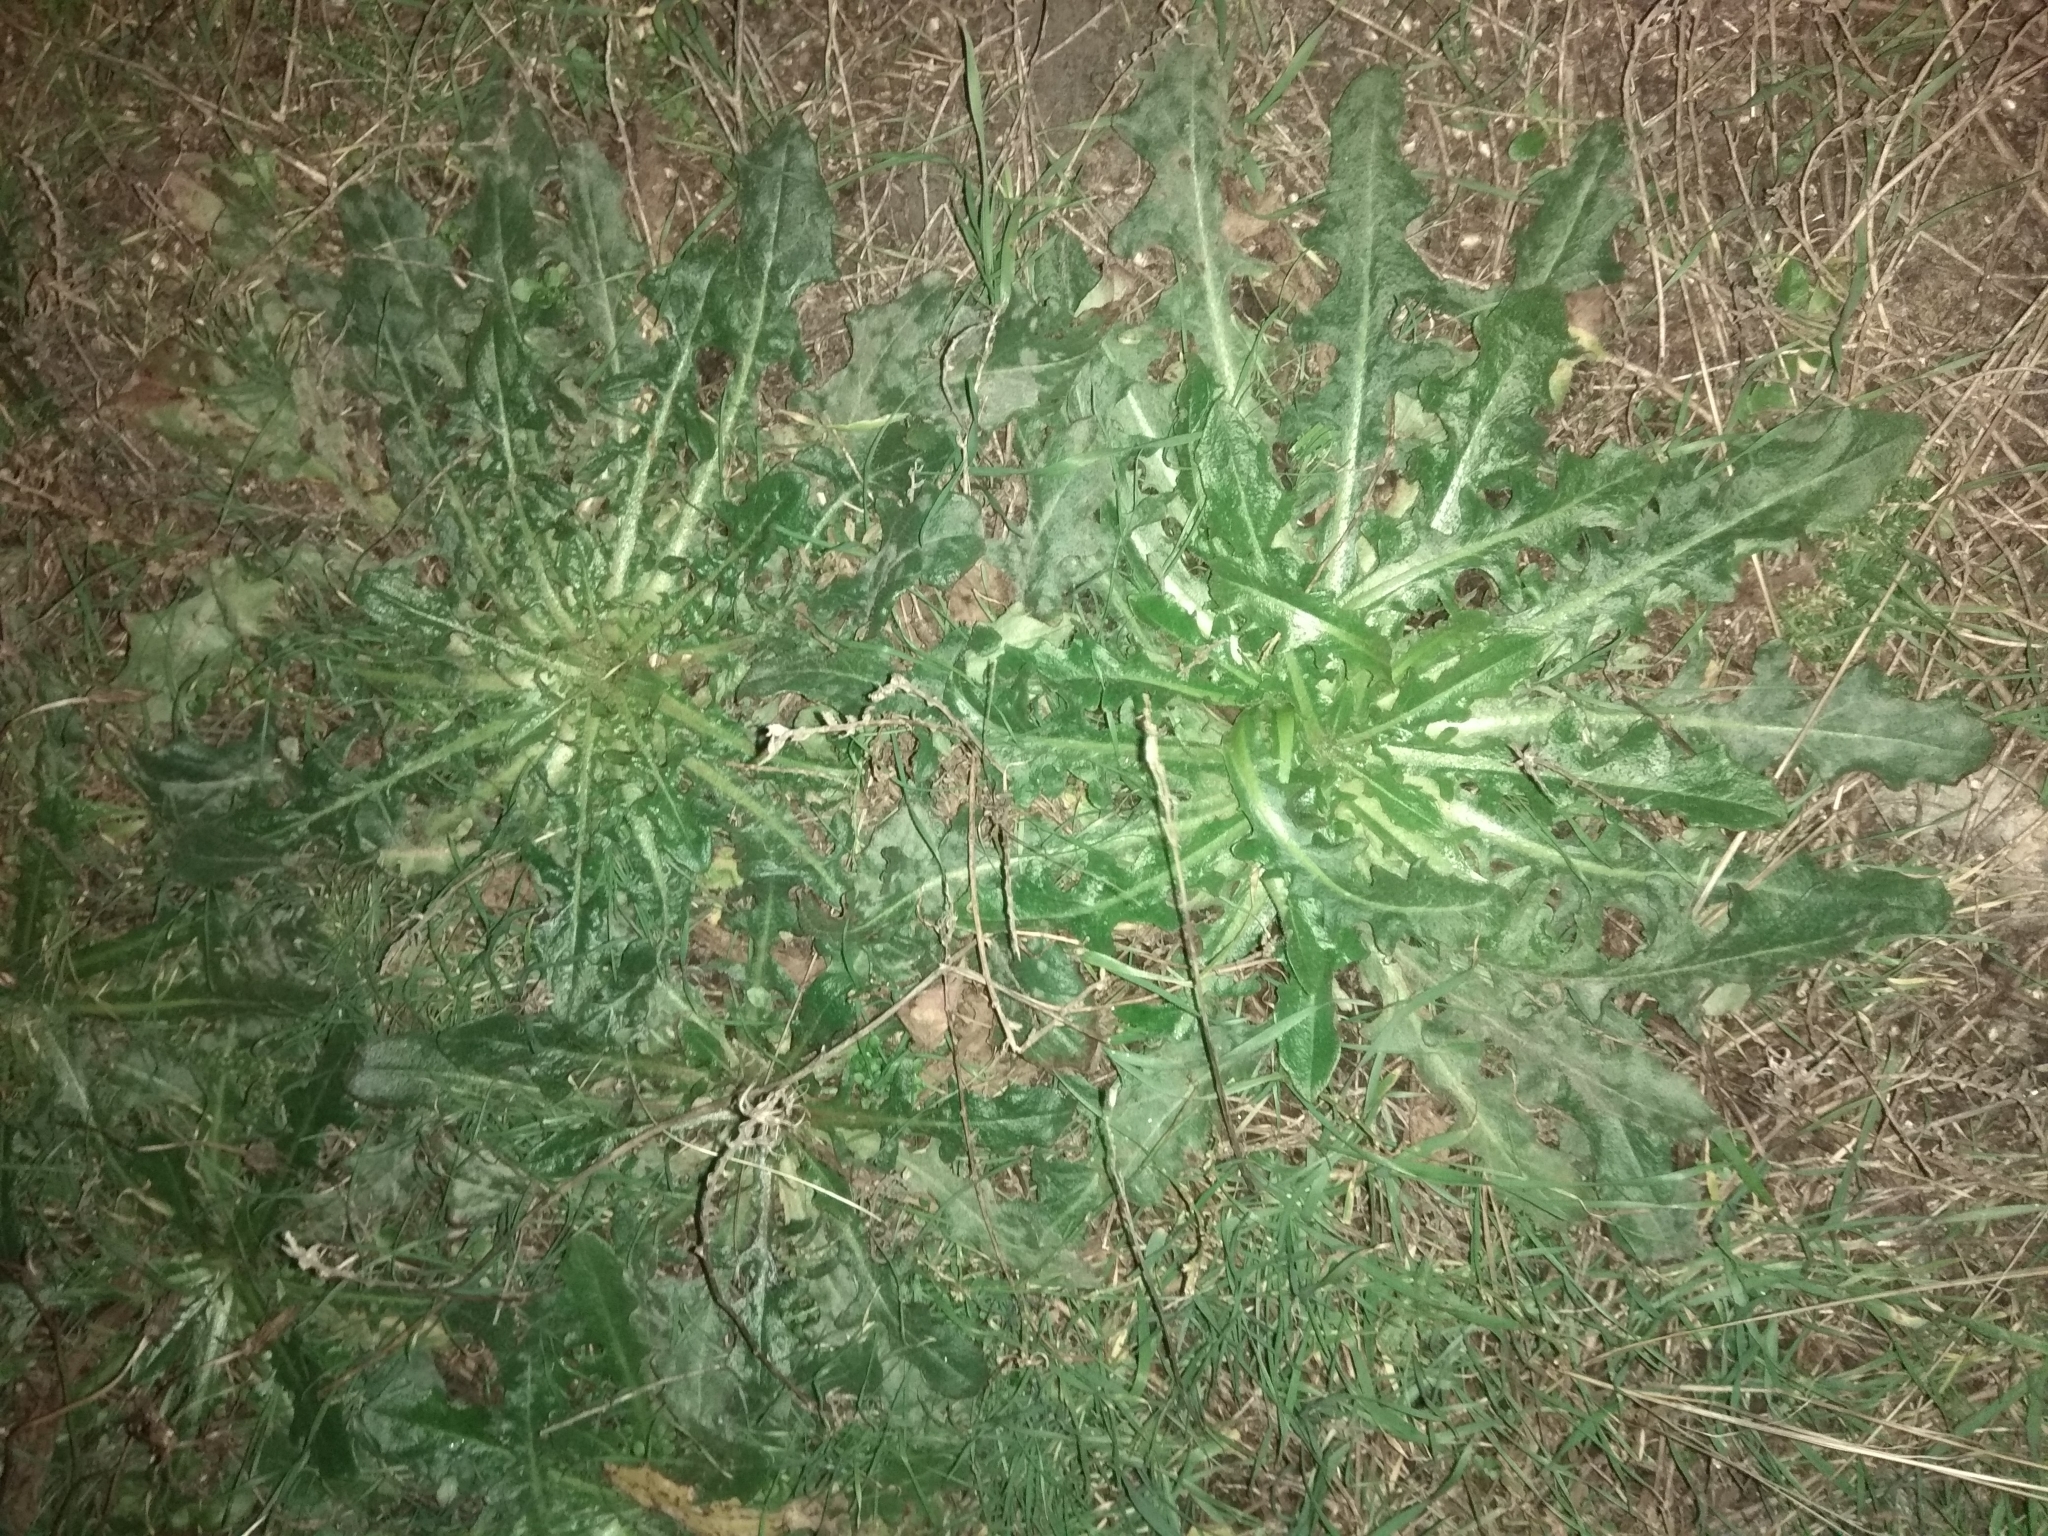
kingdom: Plantae
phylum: Tracheophyta
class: Magnoliopsida
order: Asterales
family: Asteraceae
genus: Taraxacum
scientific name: Taraxacum officinale
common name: Common dandelion
